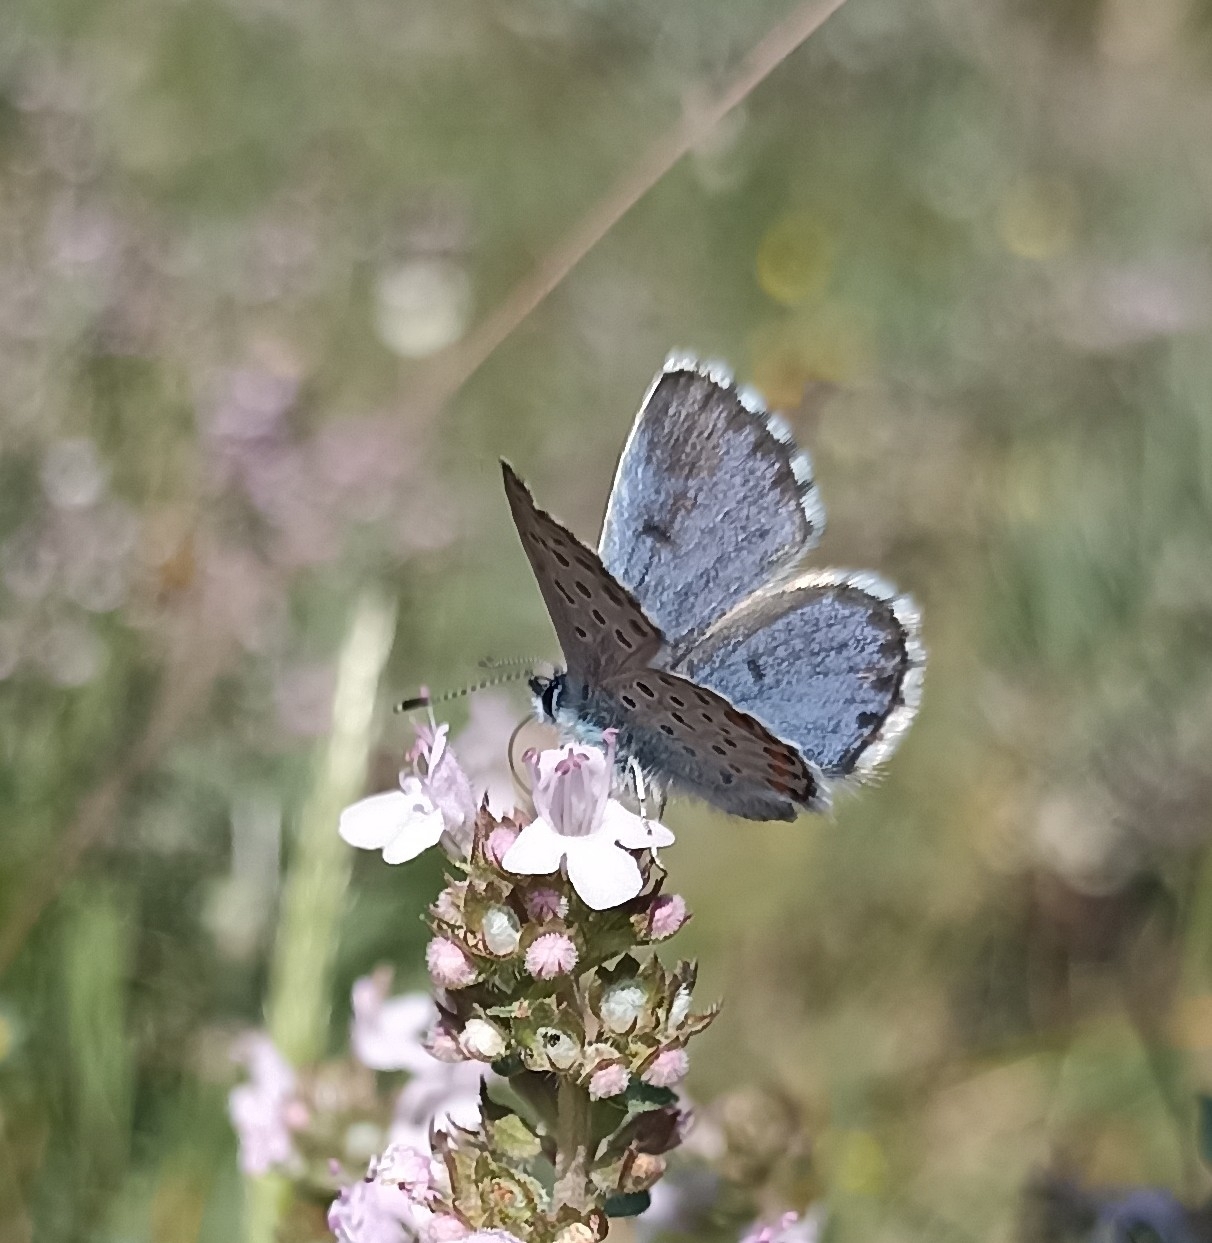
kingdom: Animalia
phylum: Arthropoda
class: Insecta
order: Lepidoptera
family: Lycaenidae
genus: Pseudophilotes
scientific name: Pseudophilotes baton
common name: Baton blue
